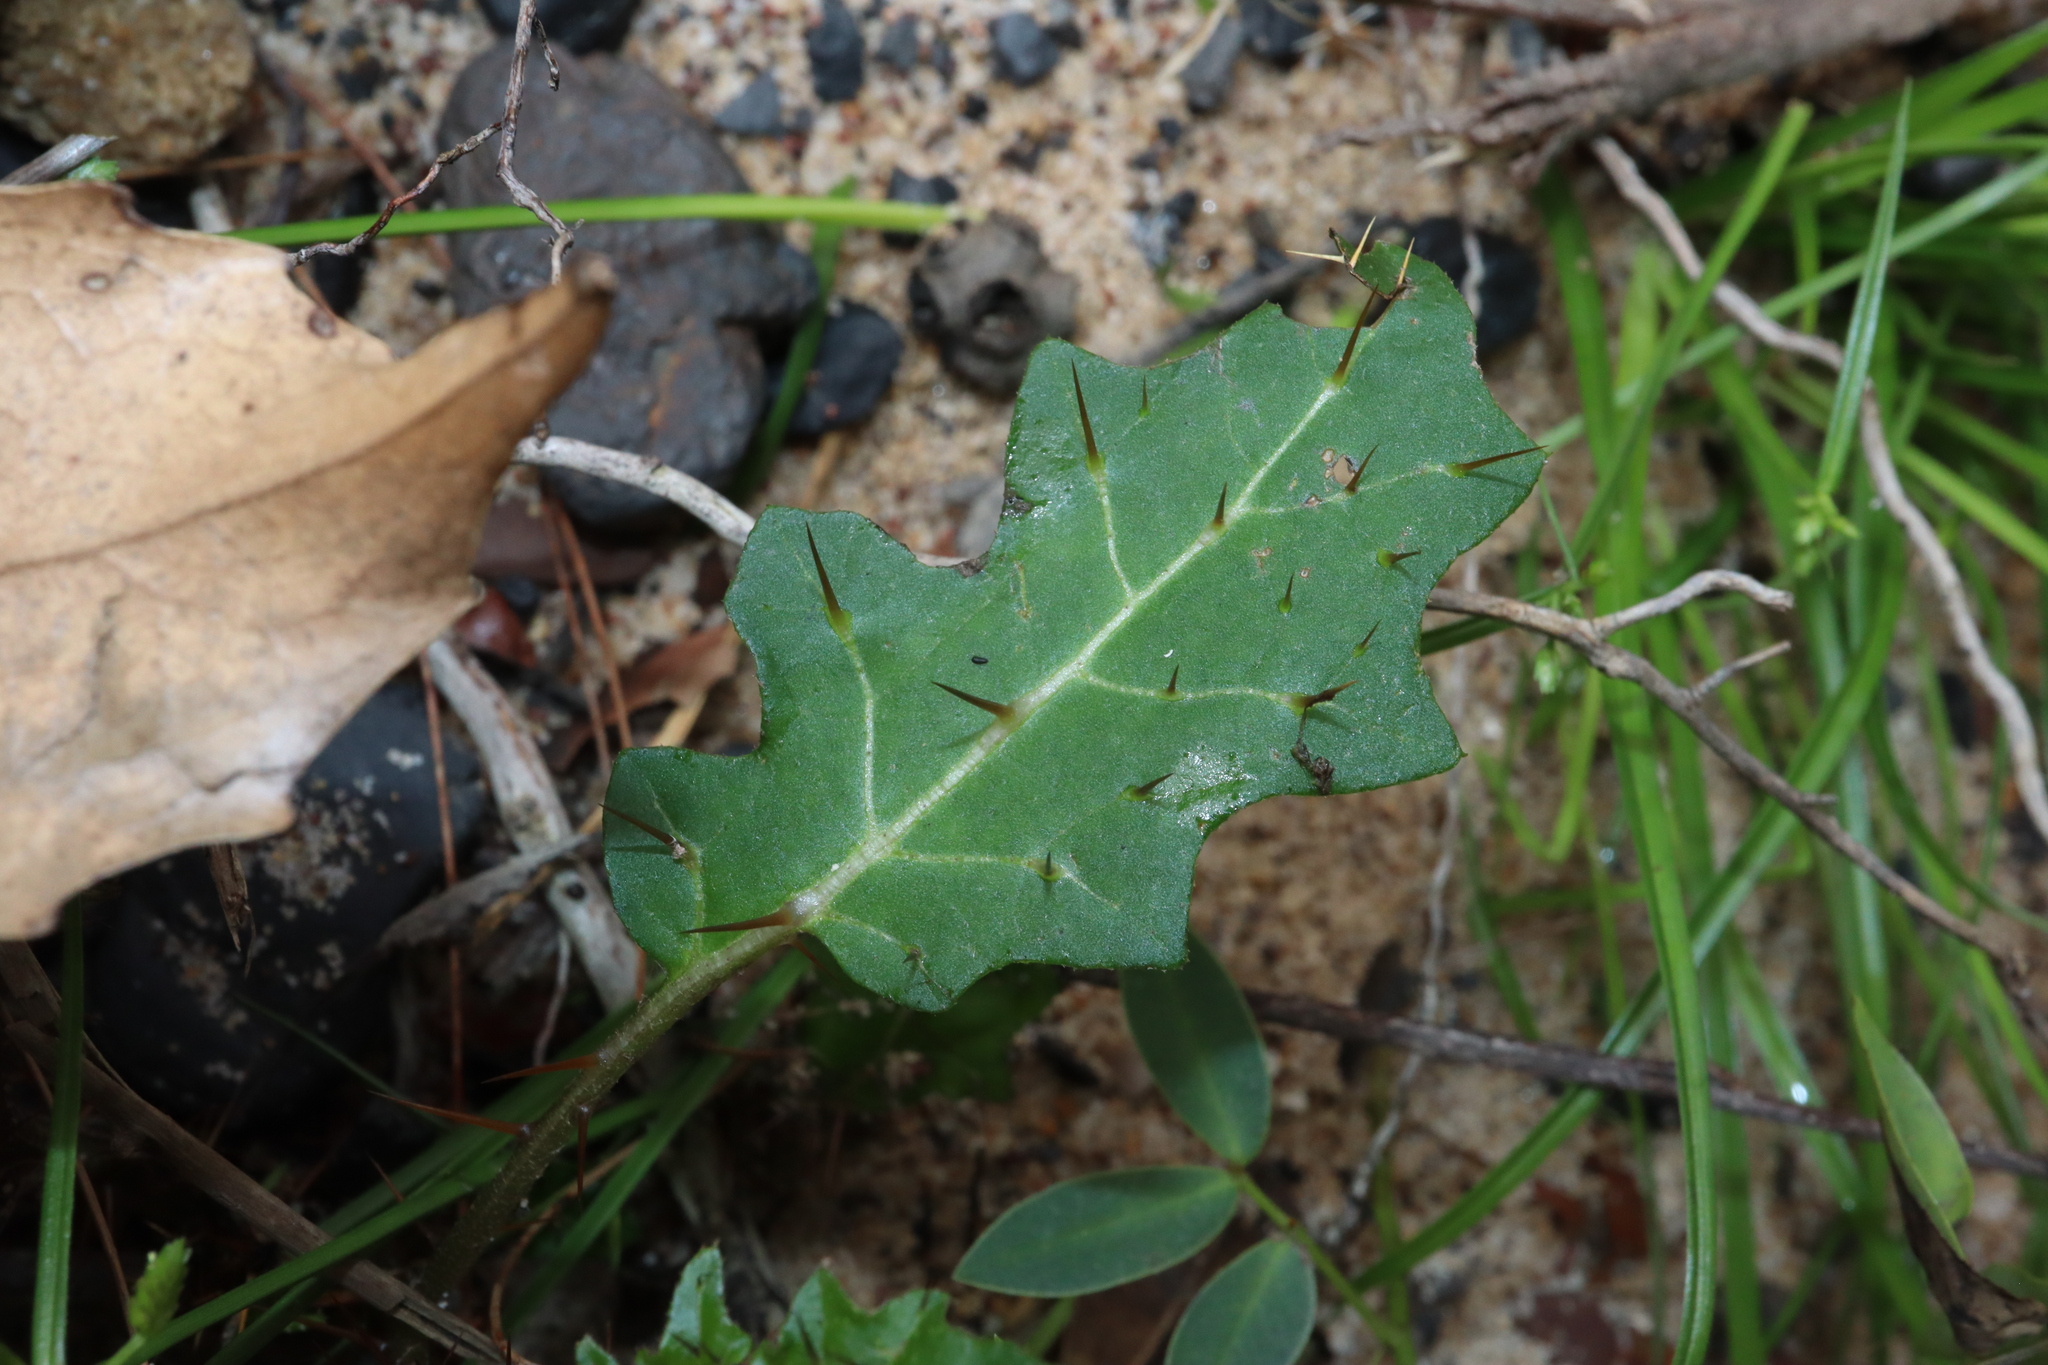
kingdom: Plantae
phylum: Tracheophyta
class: Magnoliopsida
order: Solanales
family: Solanaceae
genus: Solanum
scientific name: Solanum prinophyllum
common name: Forest nightshade
